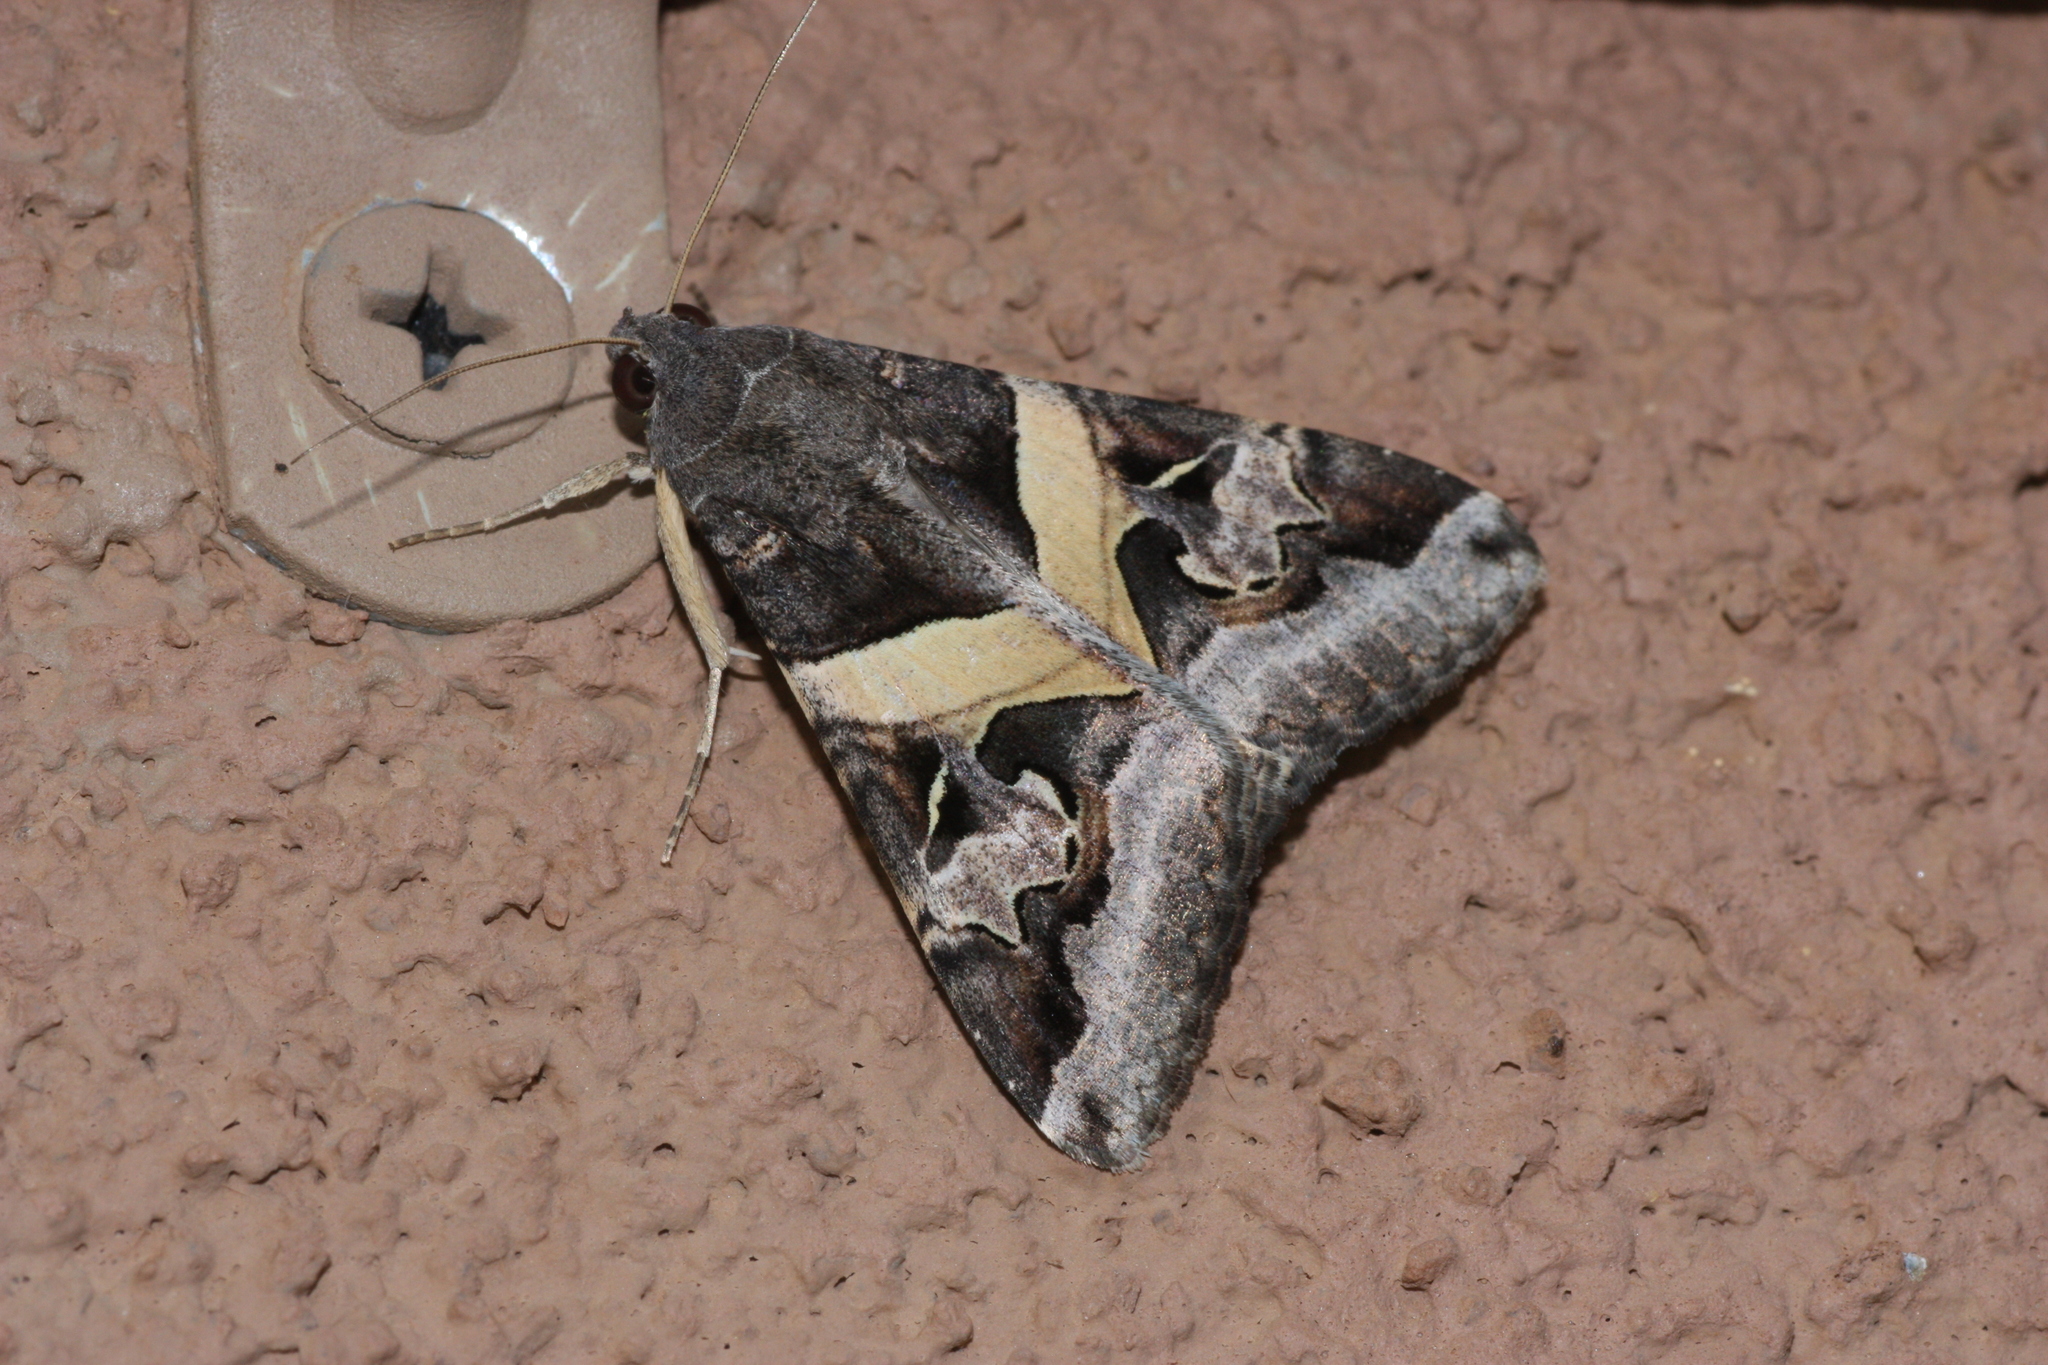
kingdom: Animalia
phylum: Arthropoda
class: Insecta
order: Lepidoptera
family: Erebidae
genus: Melipotis
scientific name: Melipotis indomita
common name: Moth
